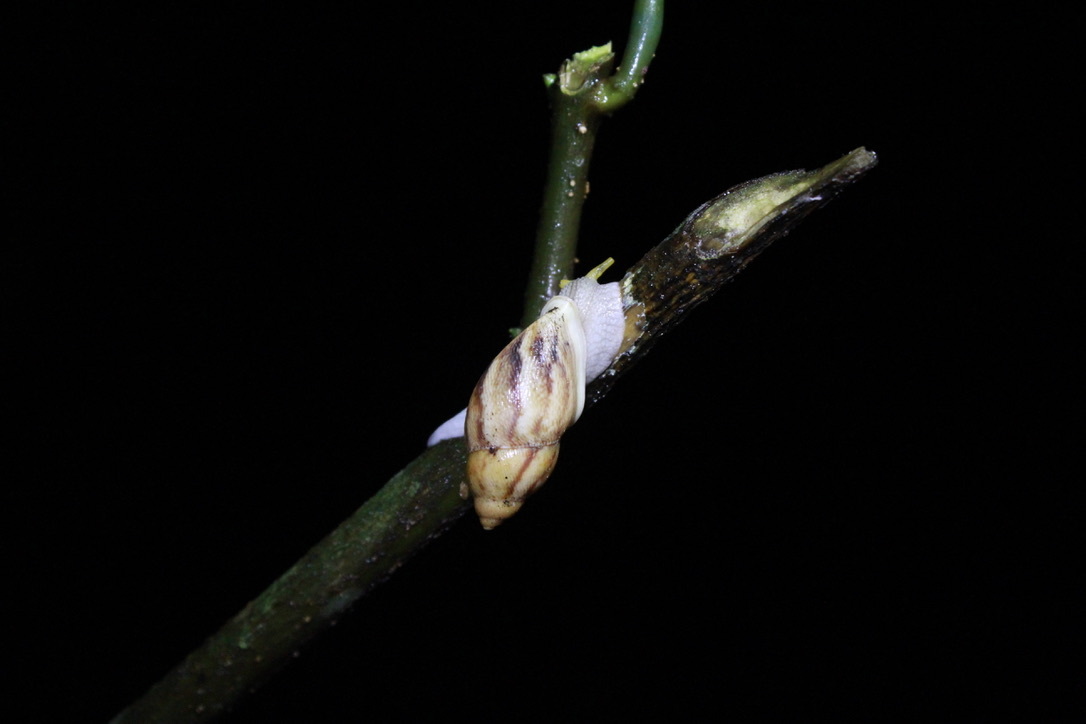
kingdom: Animalia
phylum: Mollusca
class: Gastropoda
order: Stylommatophora
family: Amphibulimidae
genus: Plekocheilus
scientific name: Plekocheilus glaber
